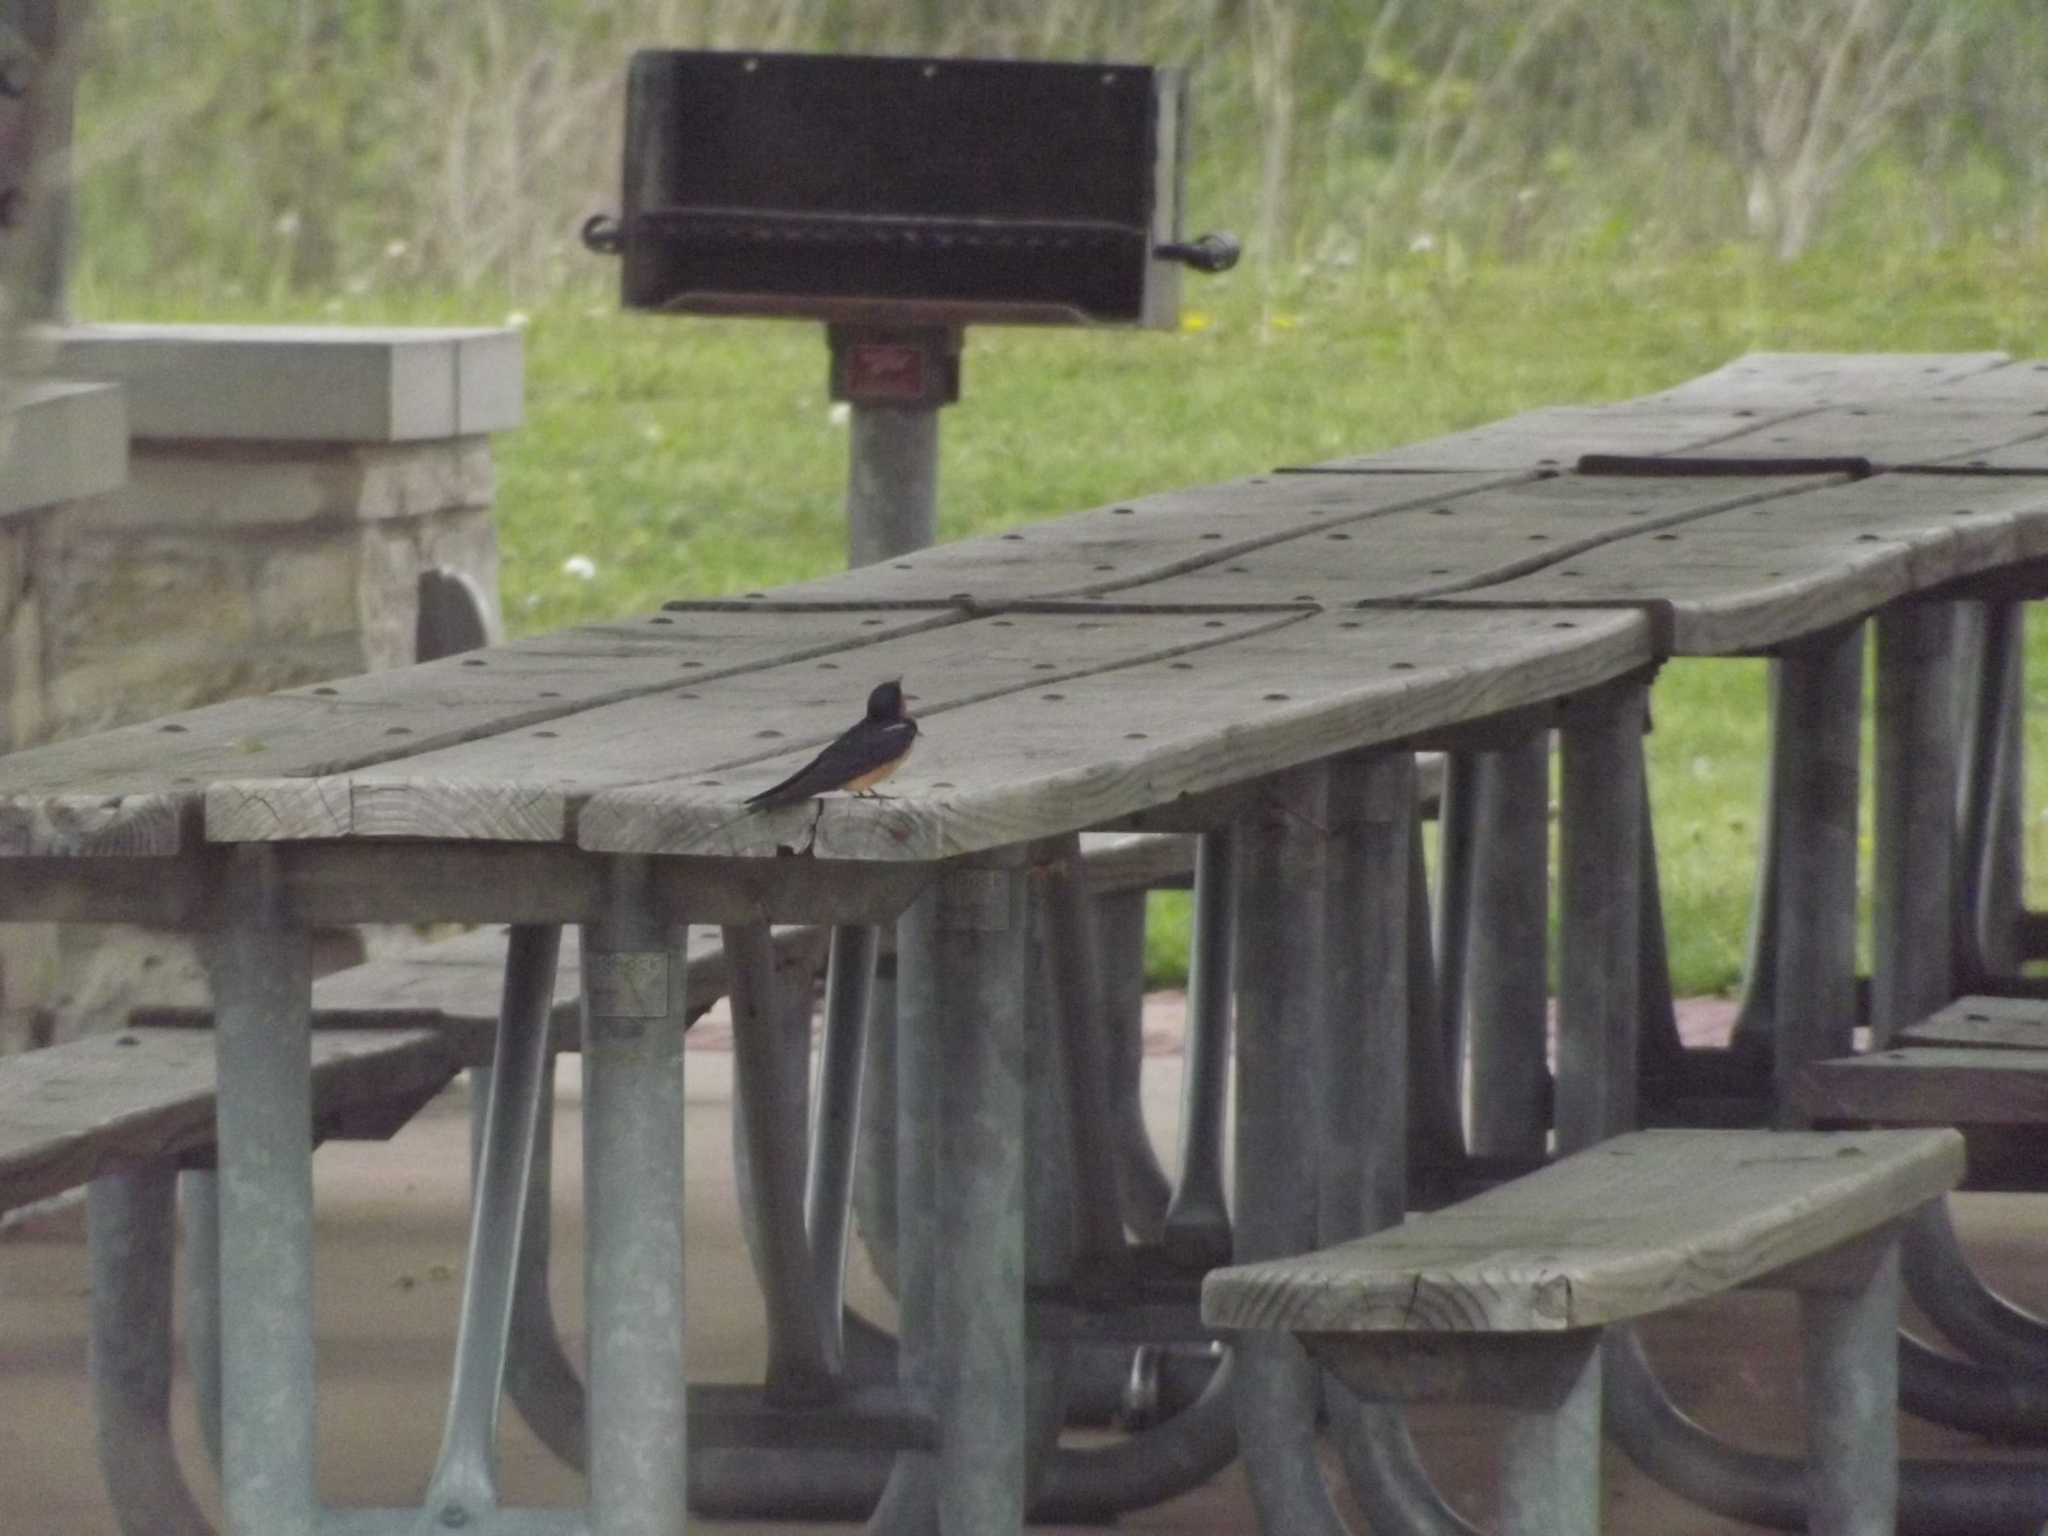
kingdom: Animalia
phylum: Chordata
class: Aves
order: Passeriformes
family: Hirundinidae
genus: Hirundo
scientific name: Hirundo rustica
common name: Barn swallow
